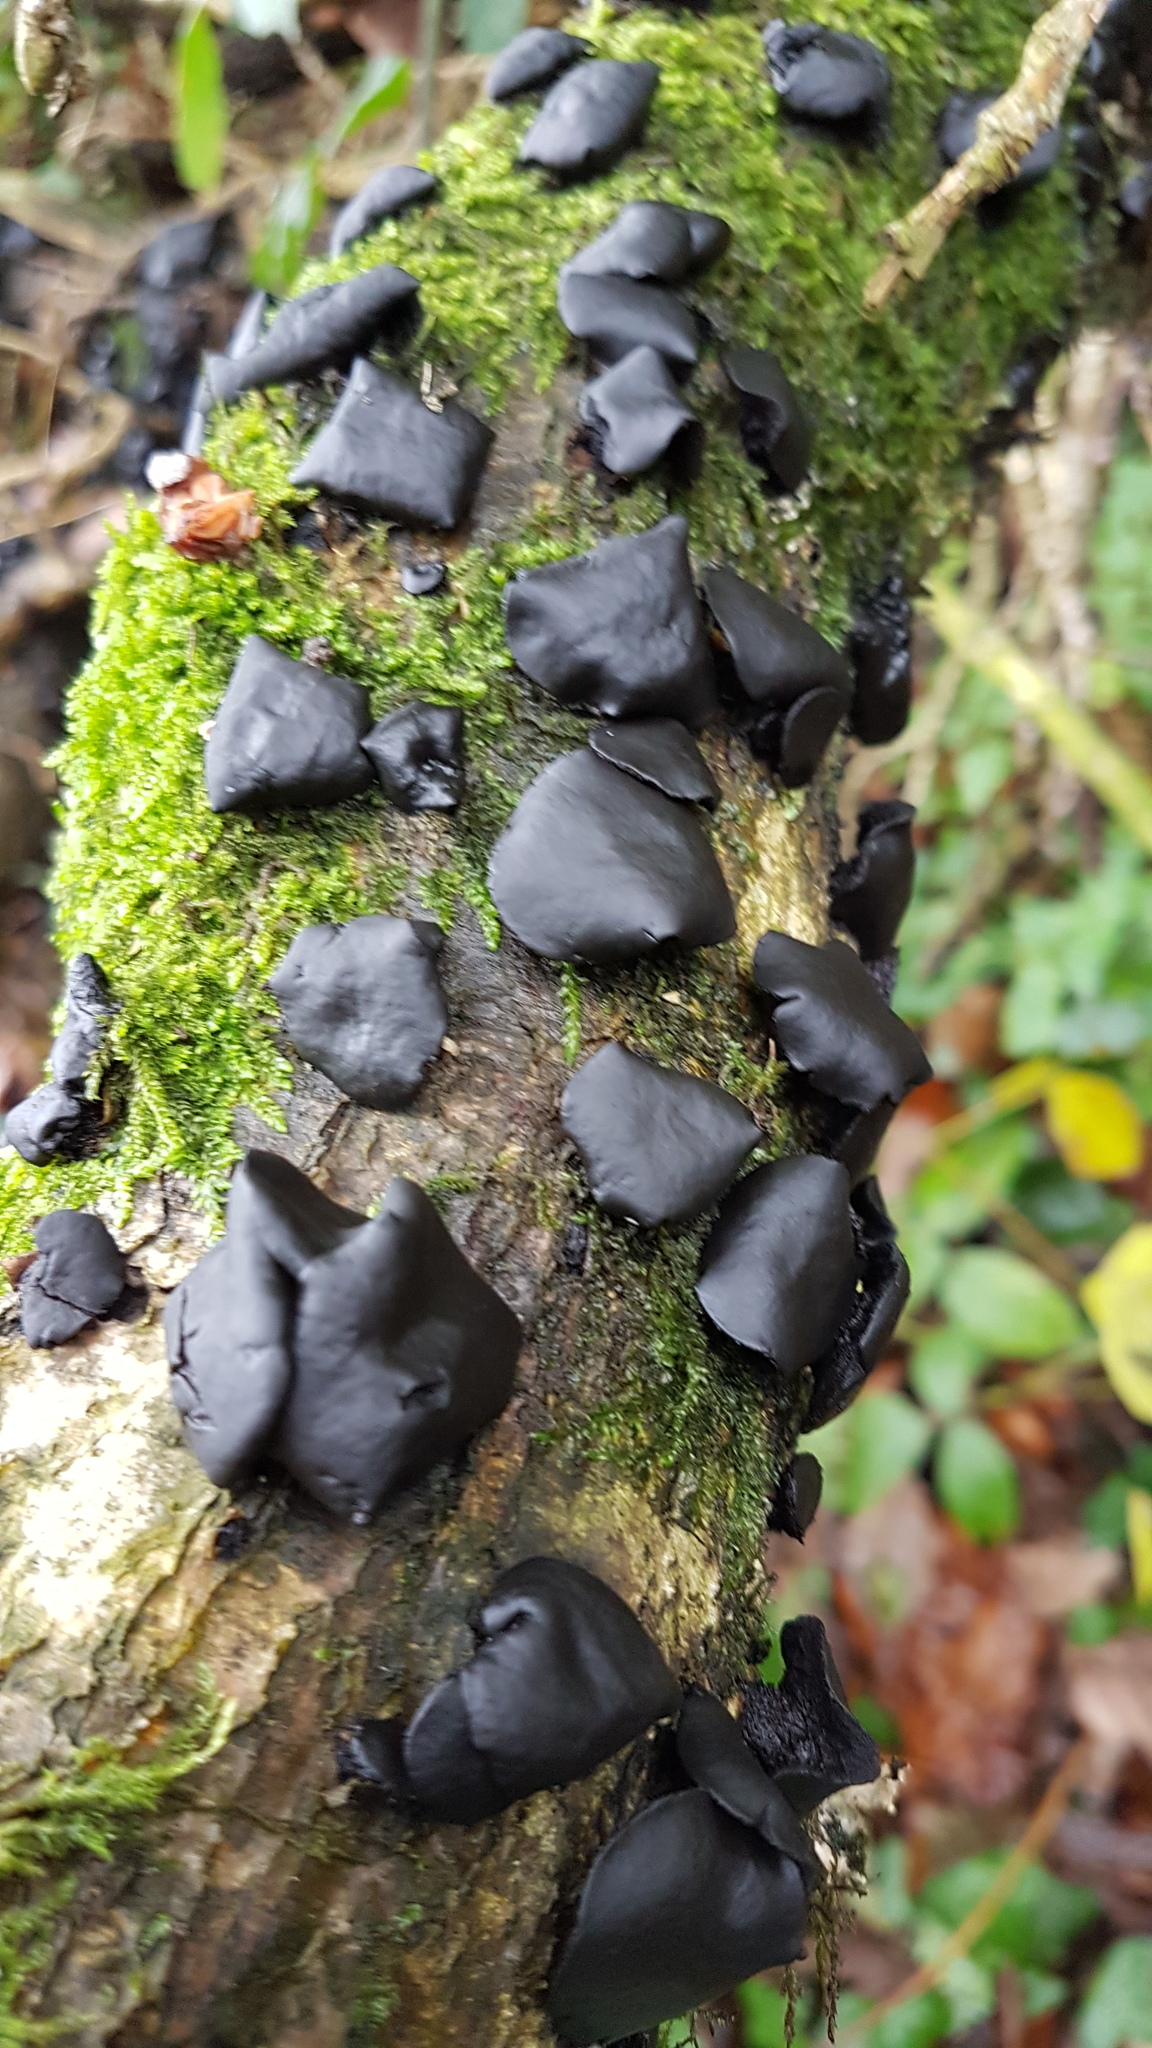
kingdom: Fungi
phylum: Ascomycota
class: Leotiomycetes
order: Phacidiales
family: Phacidiaceae
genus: Bulgaria
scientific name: Bulgaria inquinans
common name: Black bulgar
